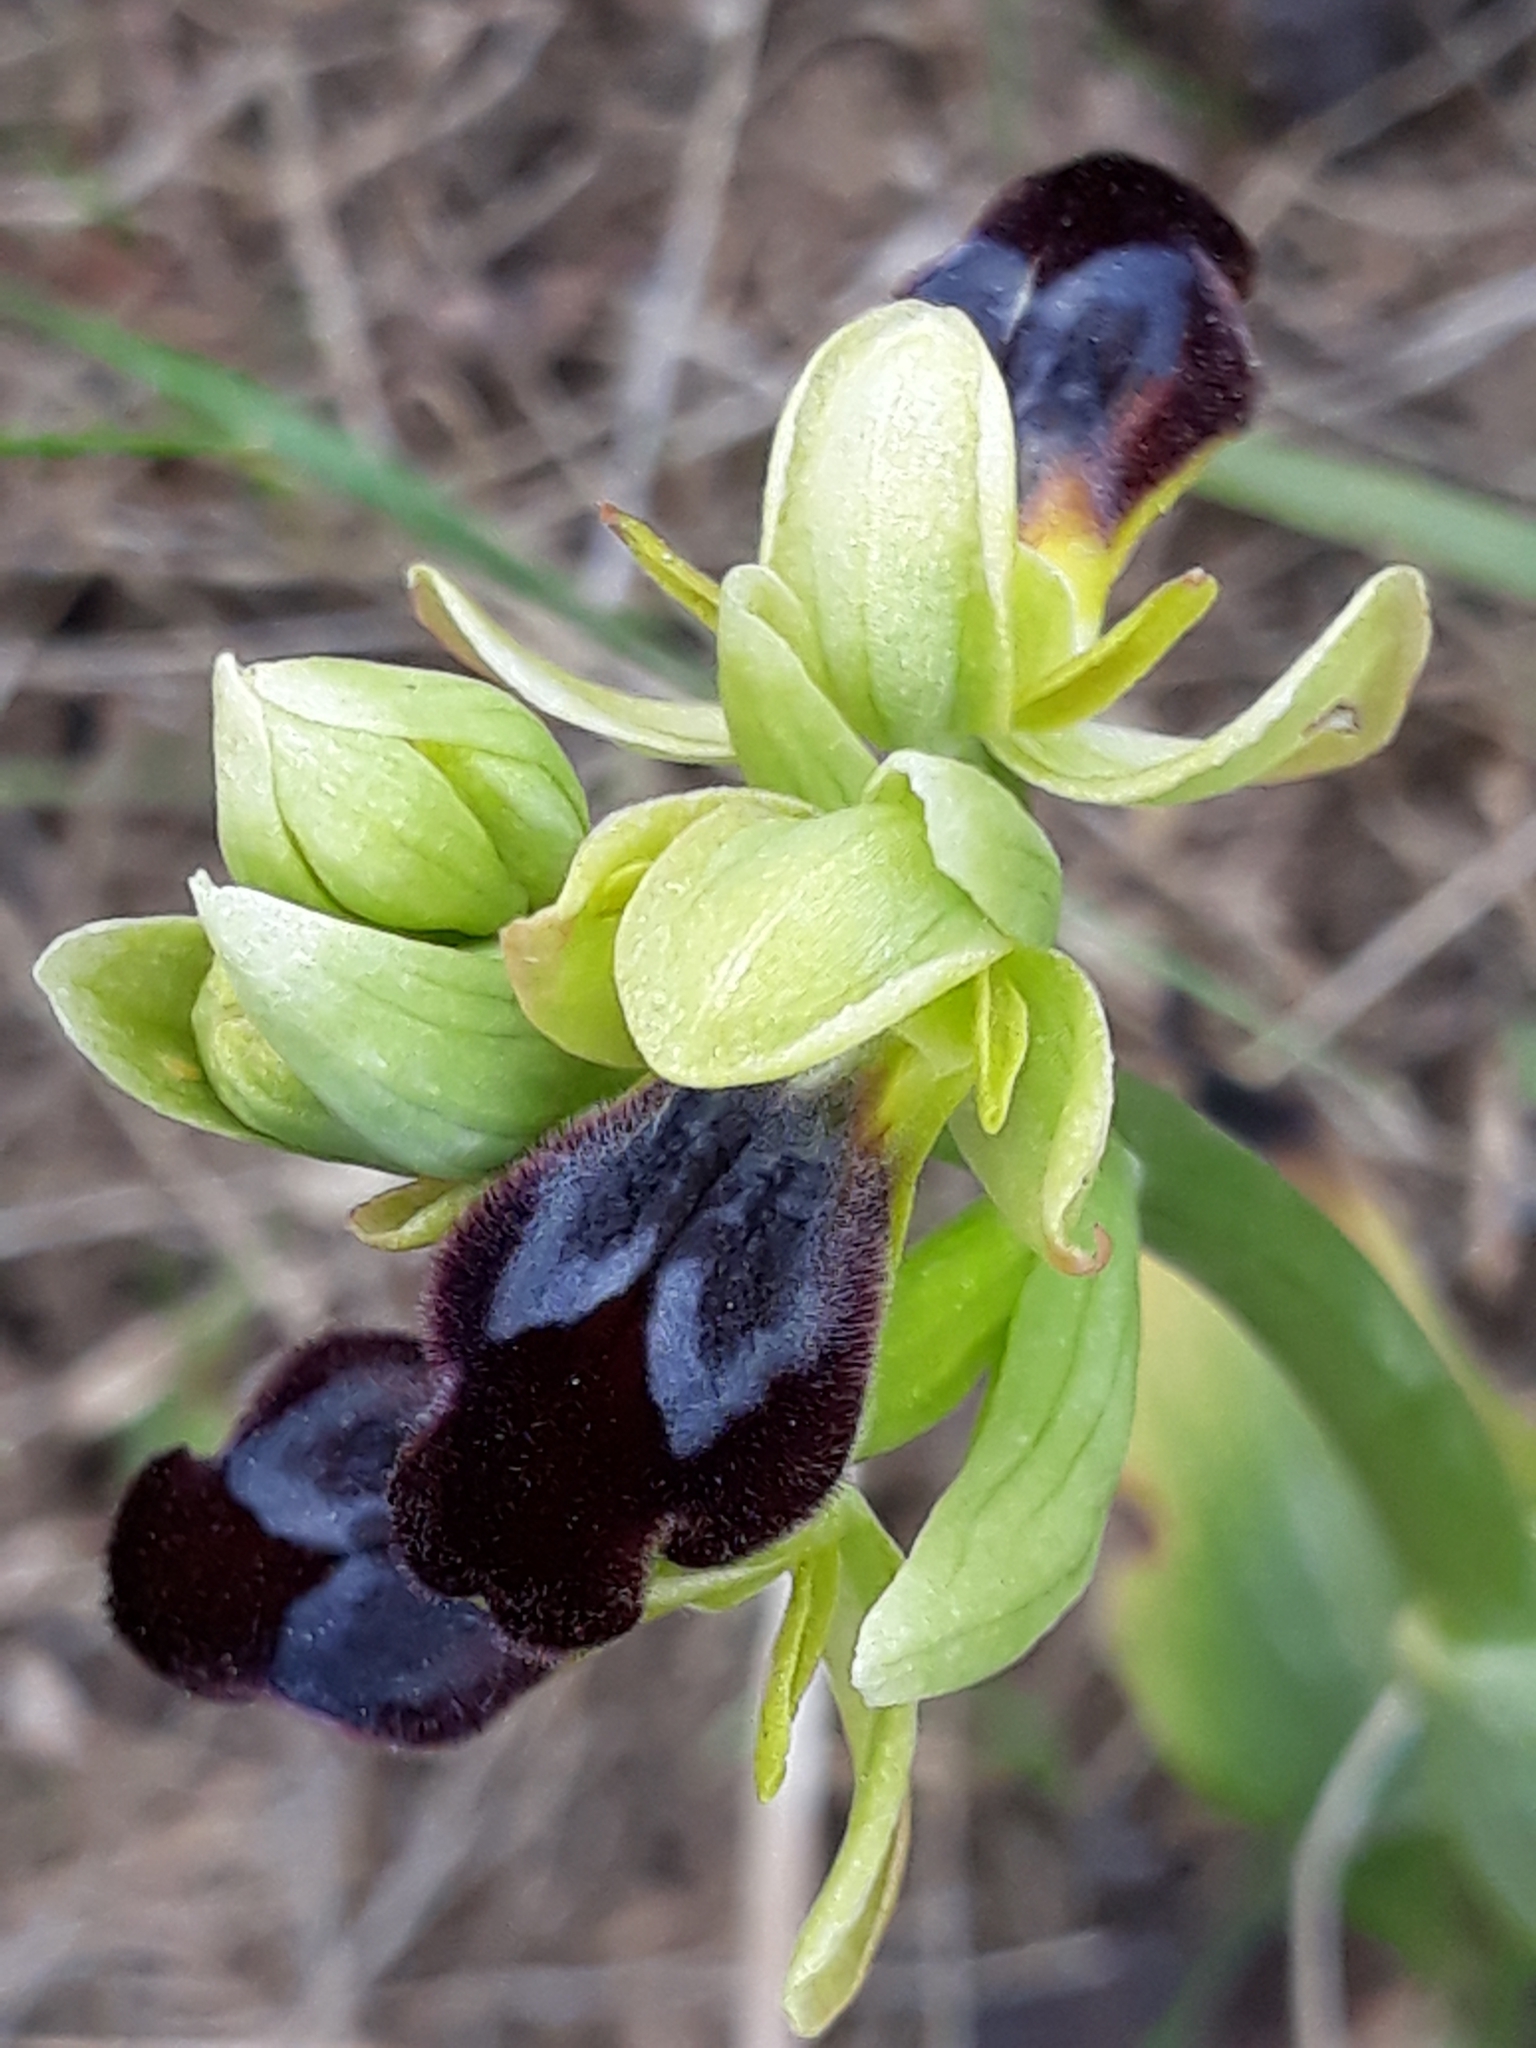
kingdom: Plantae
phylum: Tracheophyta
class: Liliopsida
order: Asparagales
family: Orchidaceae
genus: Ophrys
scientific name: Ophrys fusca
